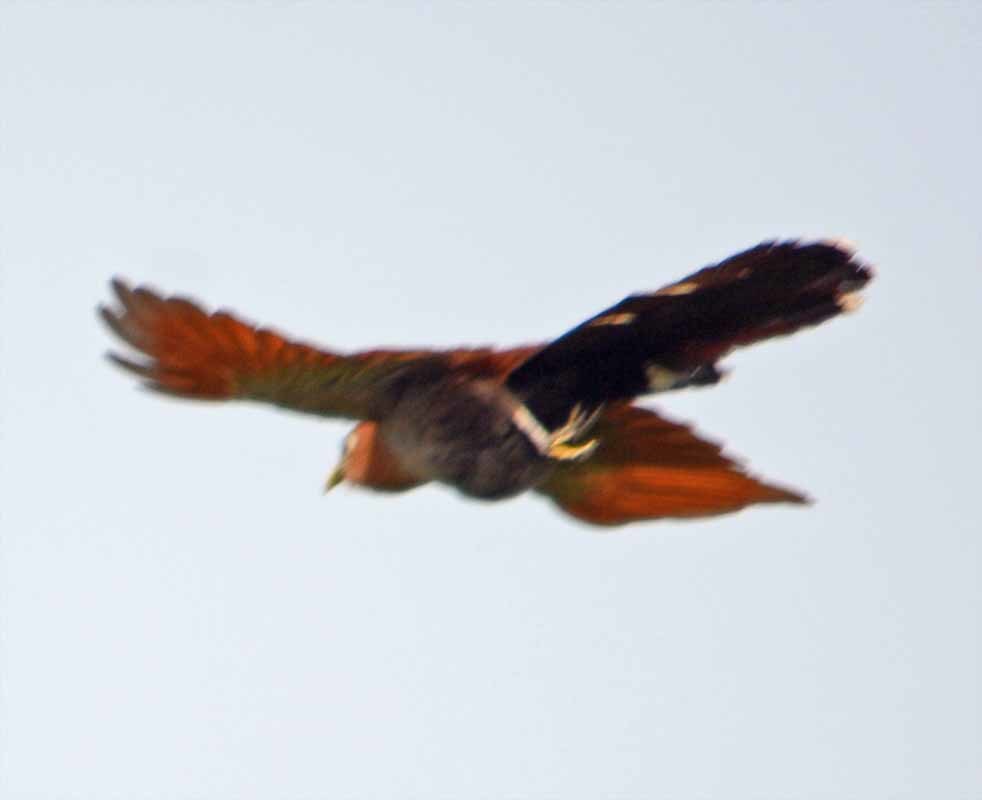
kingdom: Animalia
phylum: Chordata
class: Aves
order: Cuculiformes
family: Cuculidae
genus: Piaya
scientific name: Piaya cayana
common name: Squirrel cuckoo
